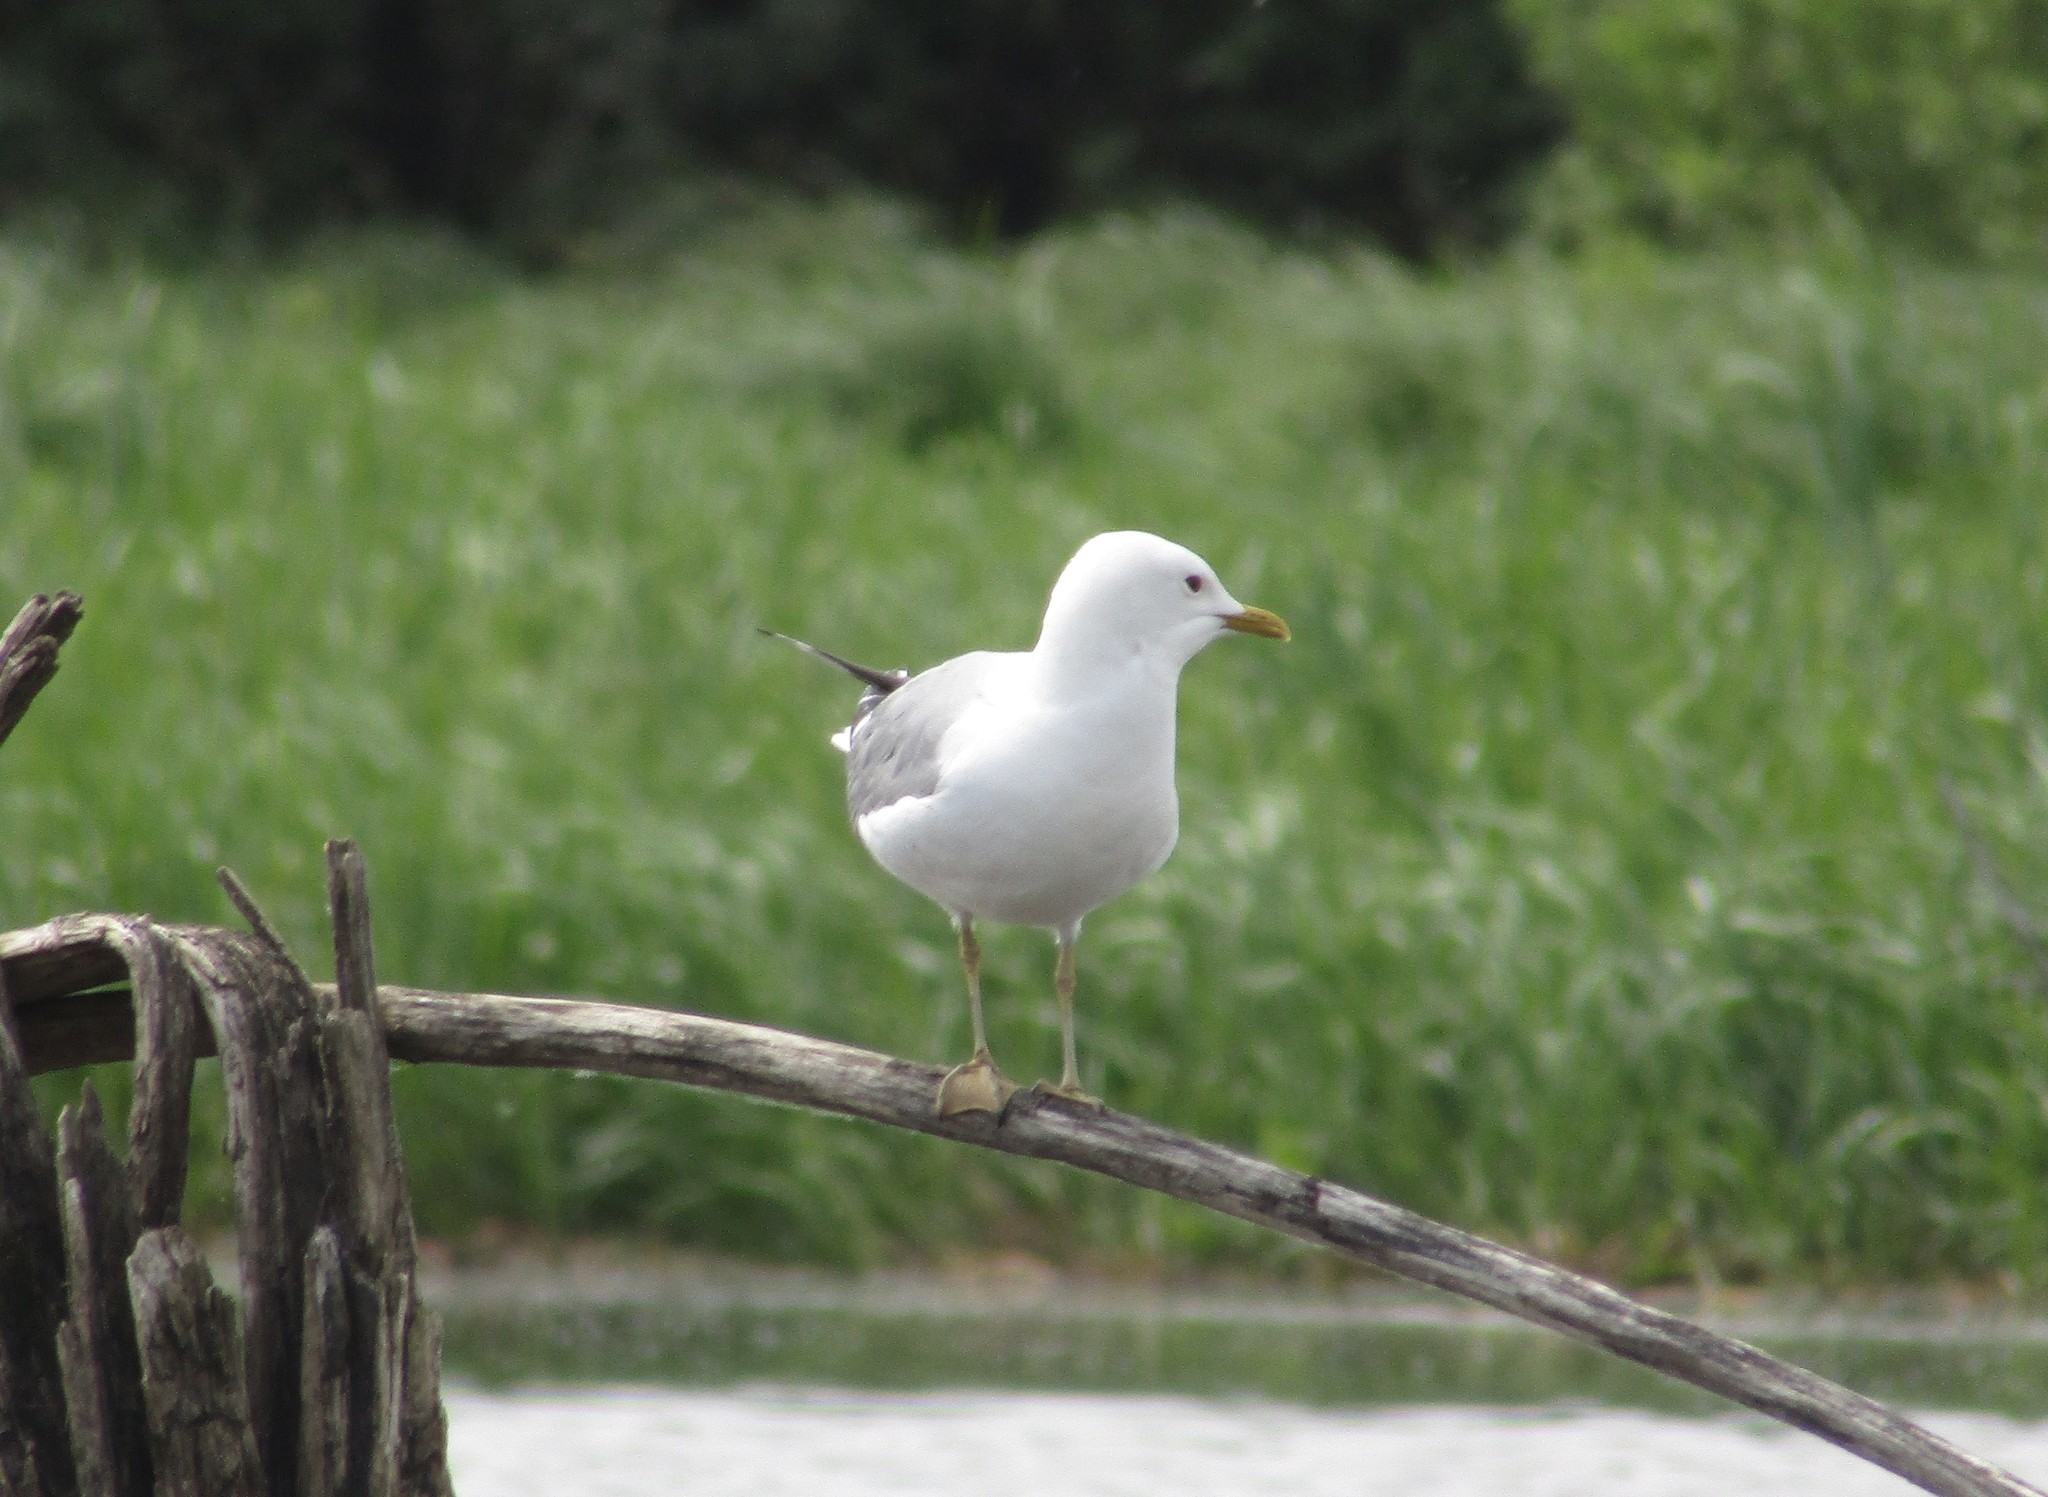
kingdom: Animalia
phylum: Chordata
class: Aves
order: Charadriiformes
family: Laridae
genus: Larus
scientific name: Larus canus
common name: Mew gull
